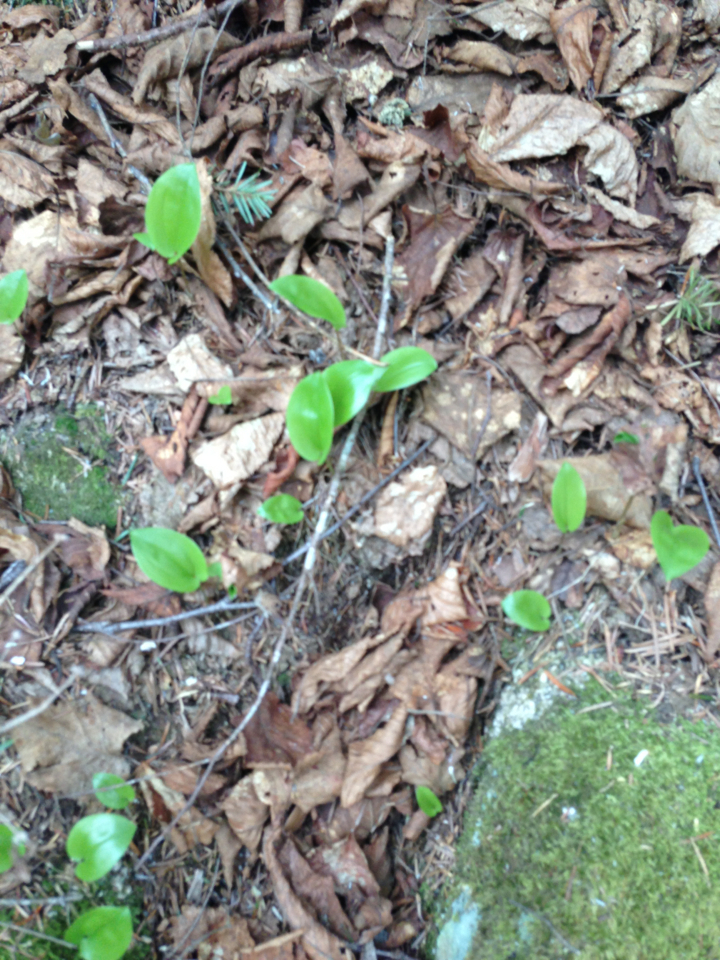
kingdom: Plantae
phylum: Tracheophyta
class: Liliopsida
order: Asparagales
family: Asparagaceae
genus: Maianthemum
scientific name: Maianthemum canadense
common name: False lily-of-the-valley
